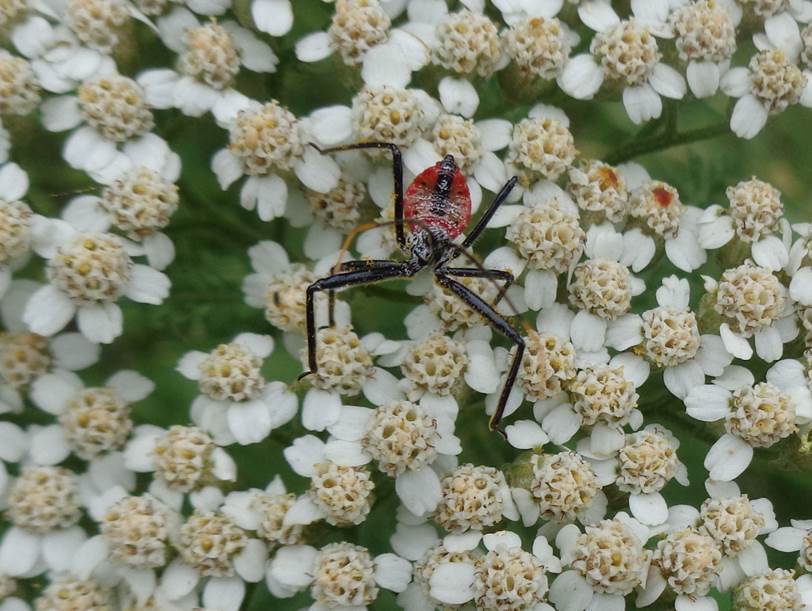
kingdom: Animalia
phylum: Arthropoda
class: Insecta
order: Hemiptera
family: Reduviidae
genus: Arilus
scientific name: Arilus cristatus
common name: North american wheel bug
